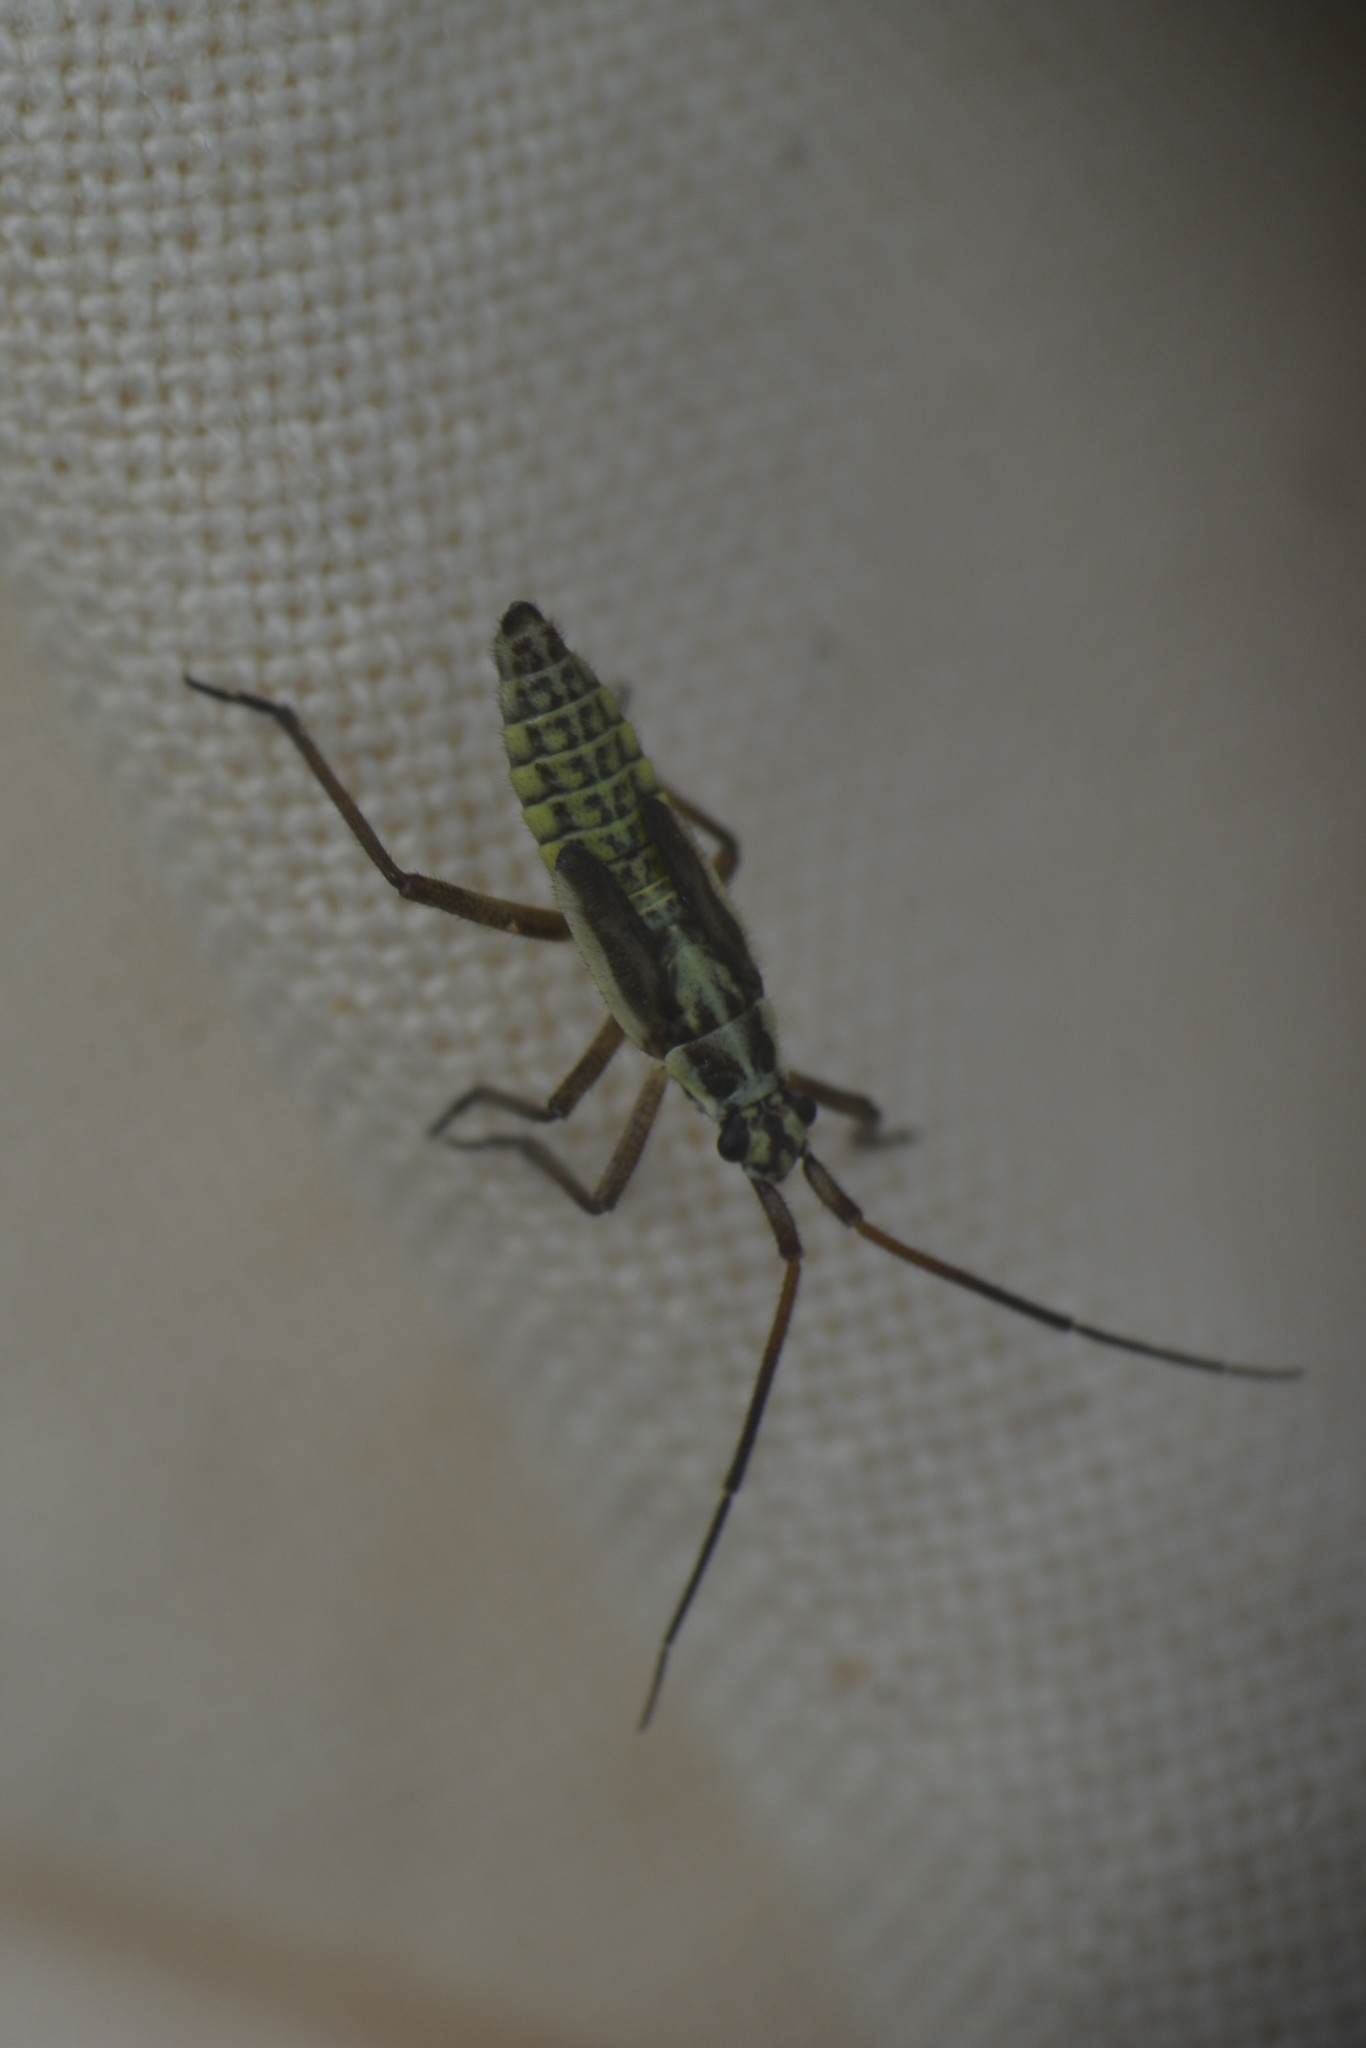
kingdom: Animalia
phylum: Arthropoda
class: Insecta
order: Hemiptera
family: Miridae
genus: Leptopterna
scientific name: Leptopterna dolabrata
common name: Meadow plant bug
